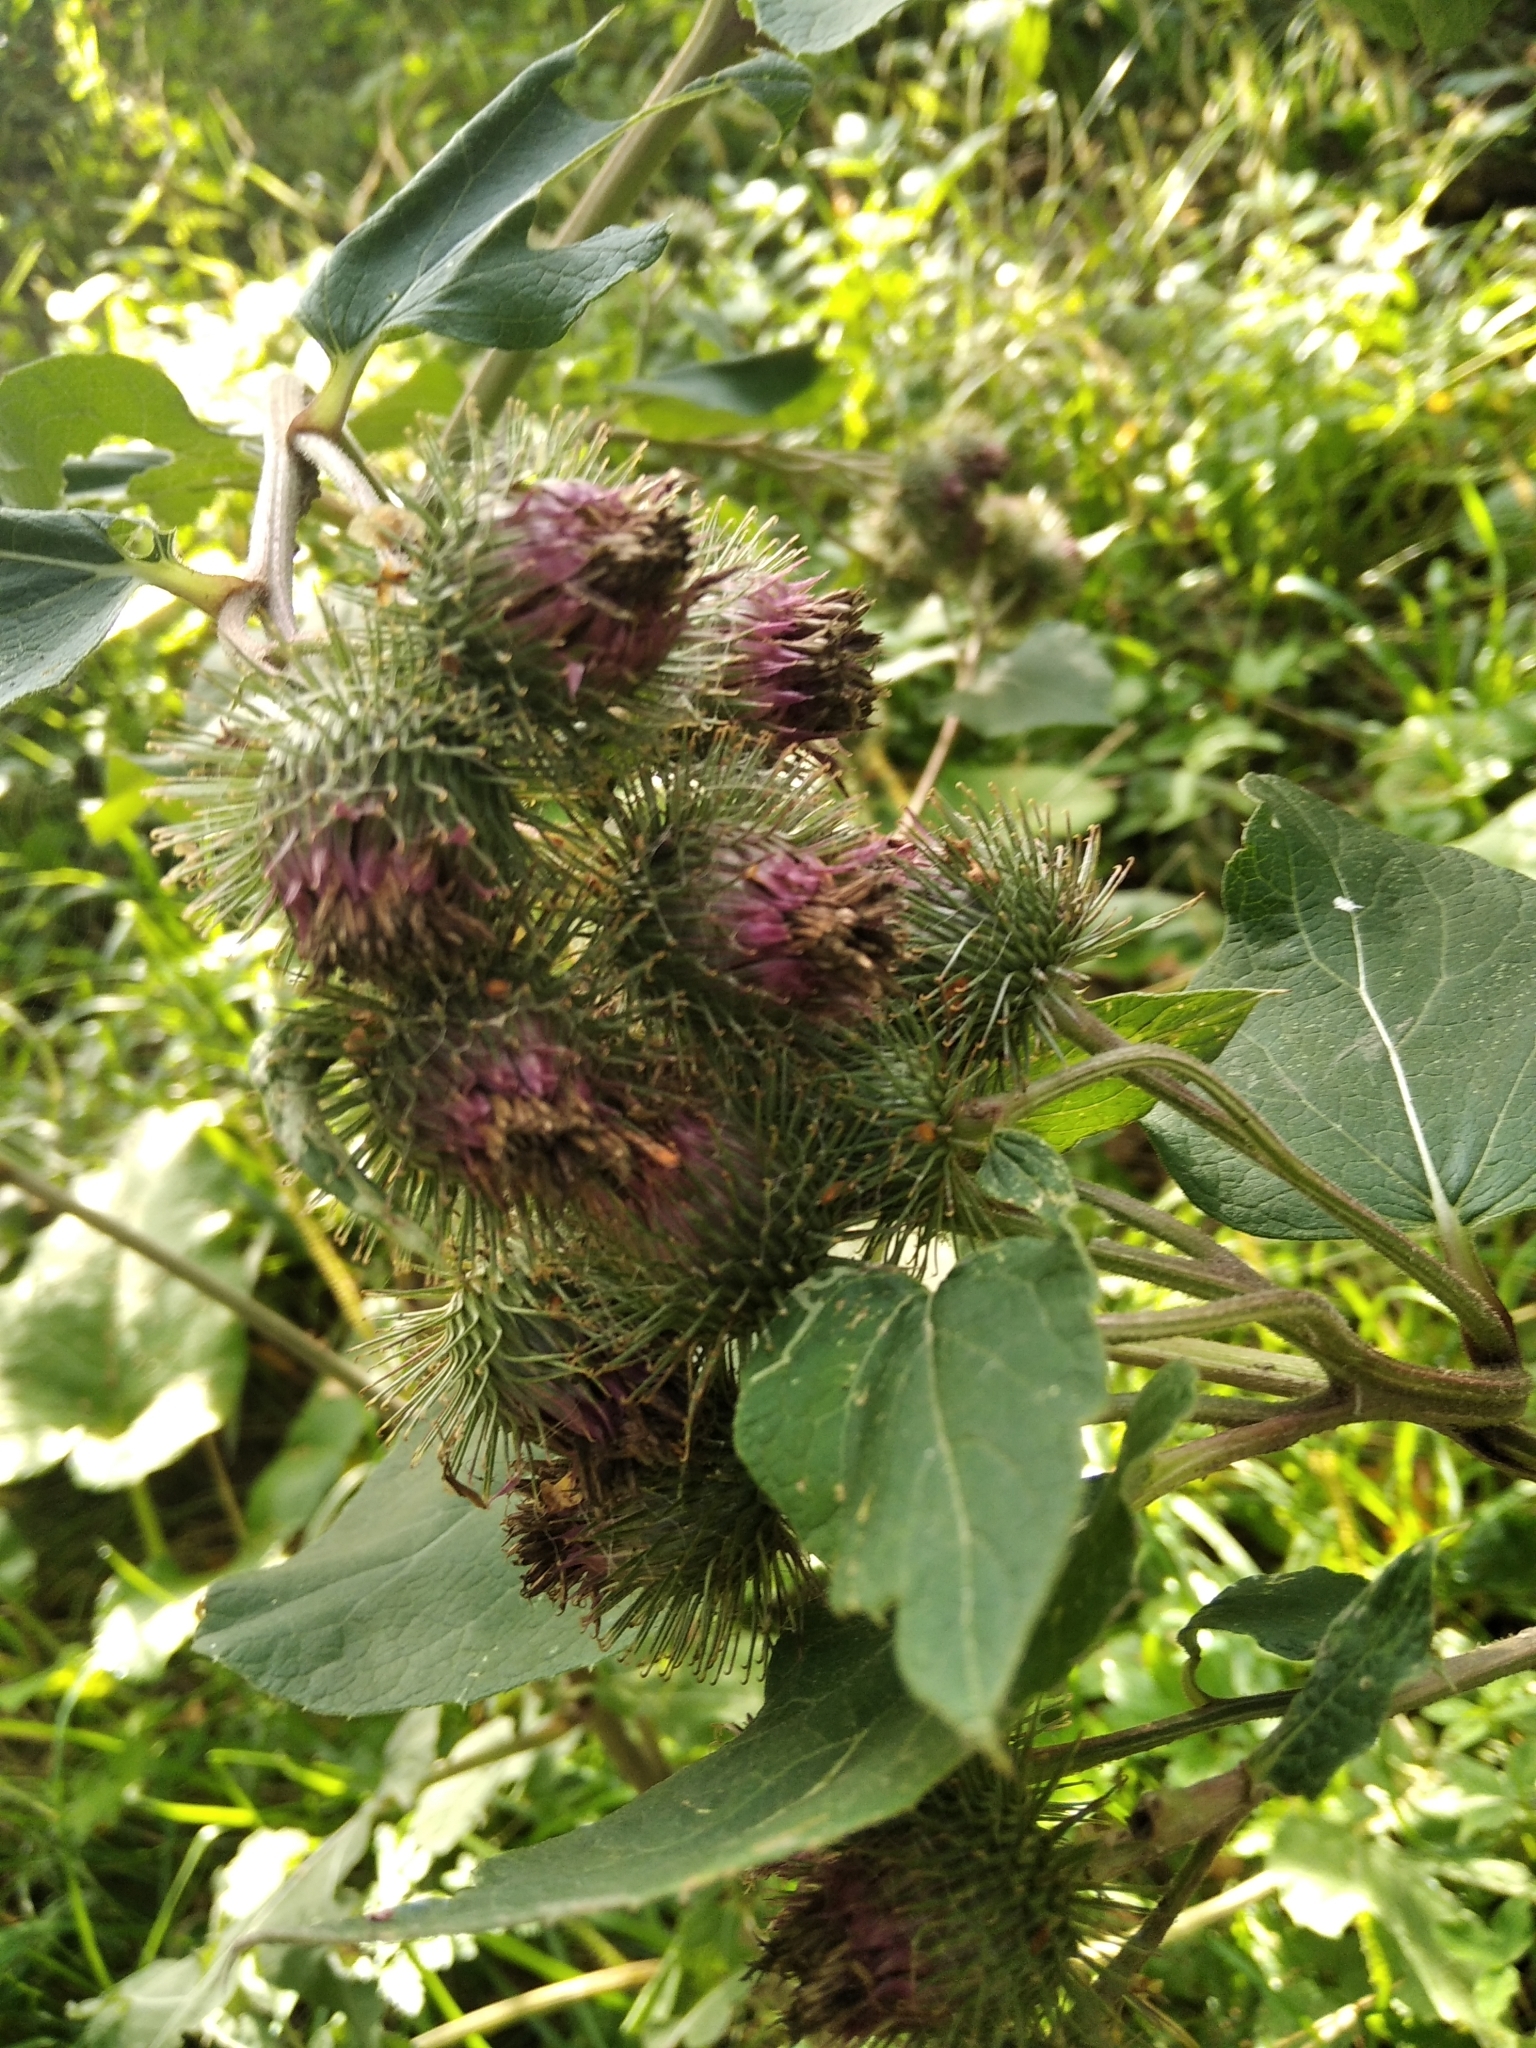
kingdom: Plantae
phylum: Tracheophyta
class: Magnoliopsida
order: Asterales
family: Asteraceae
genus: Arctium
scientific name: Arctium minus
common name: Lesser burdock
